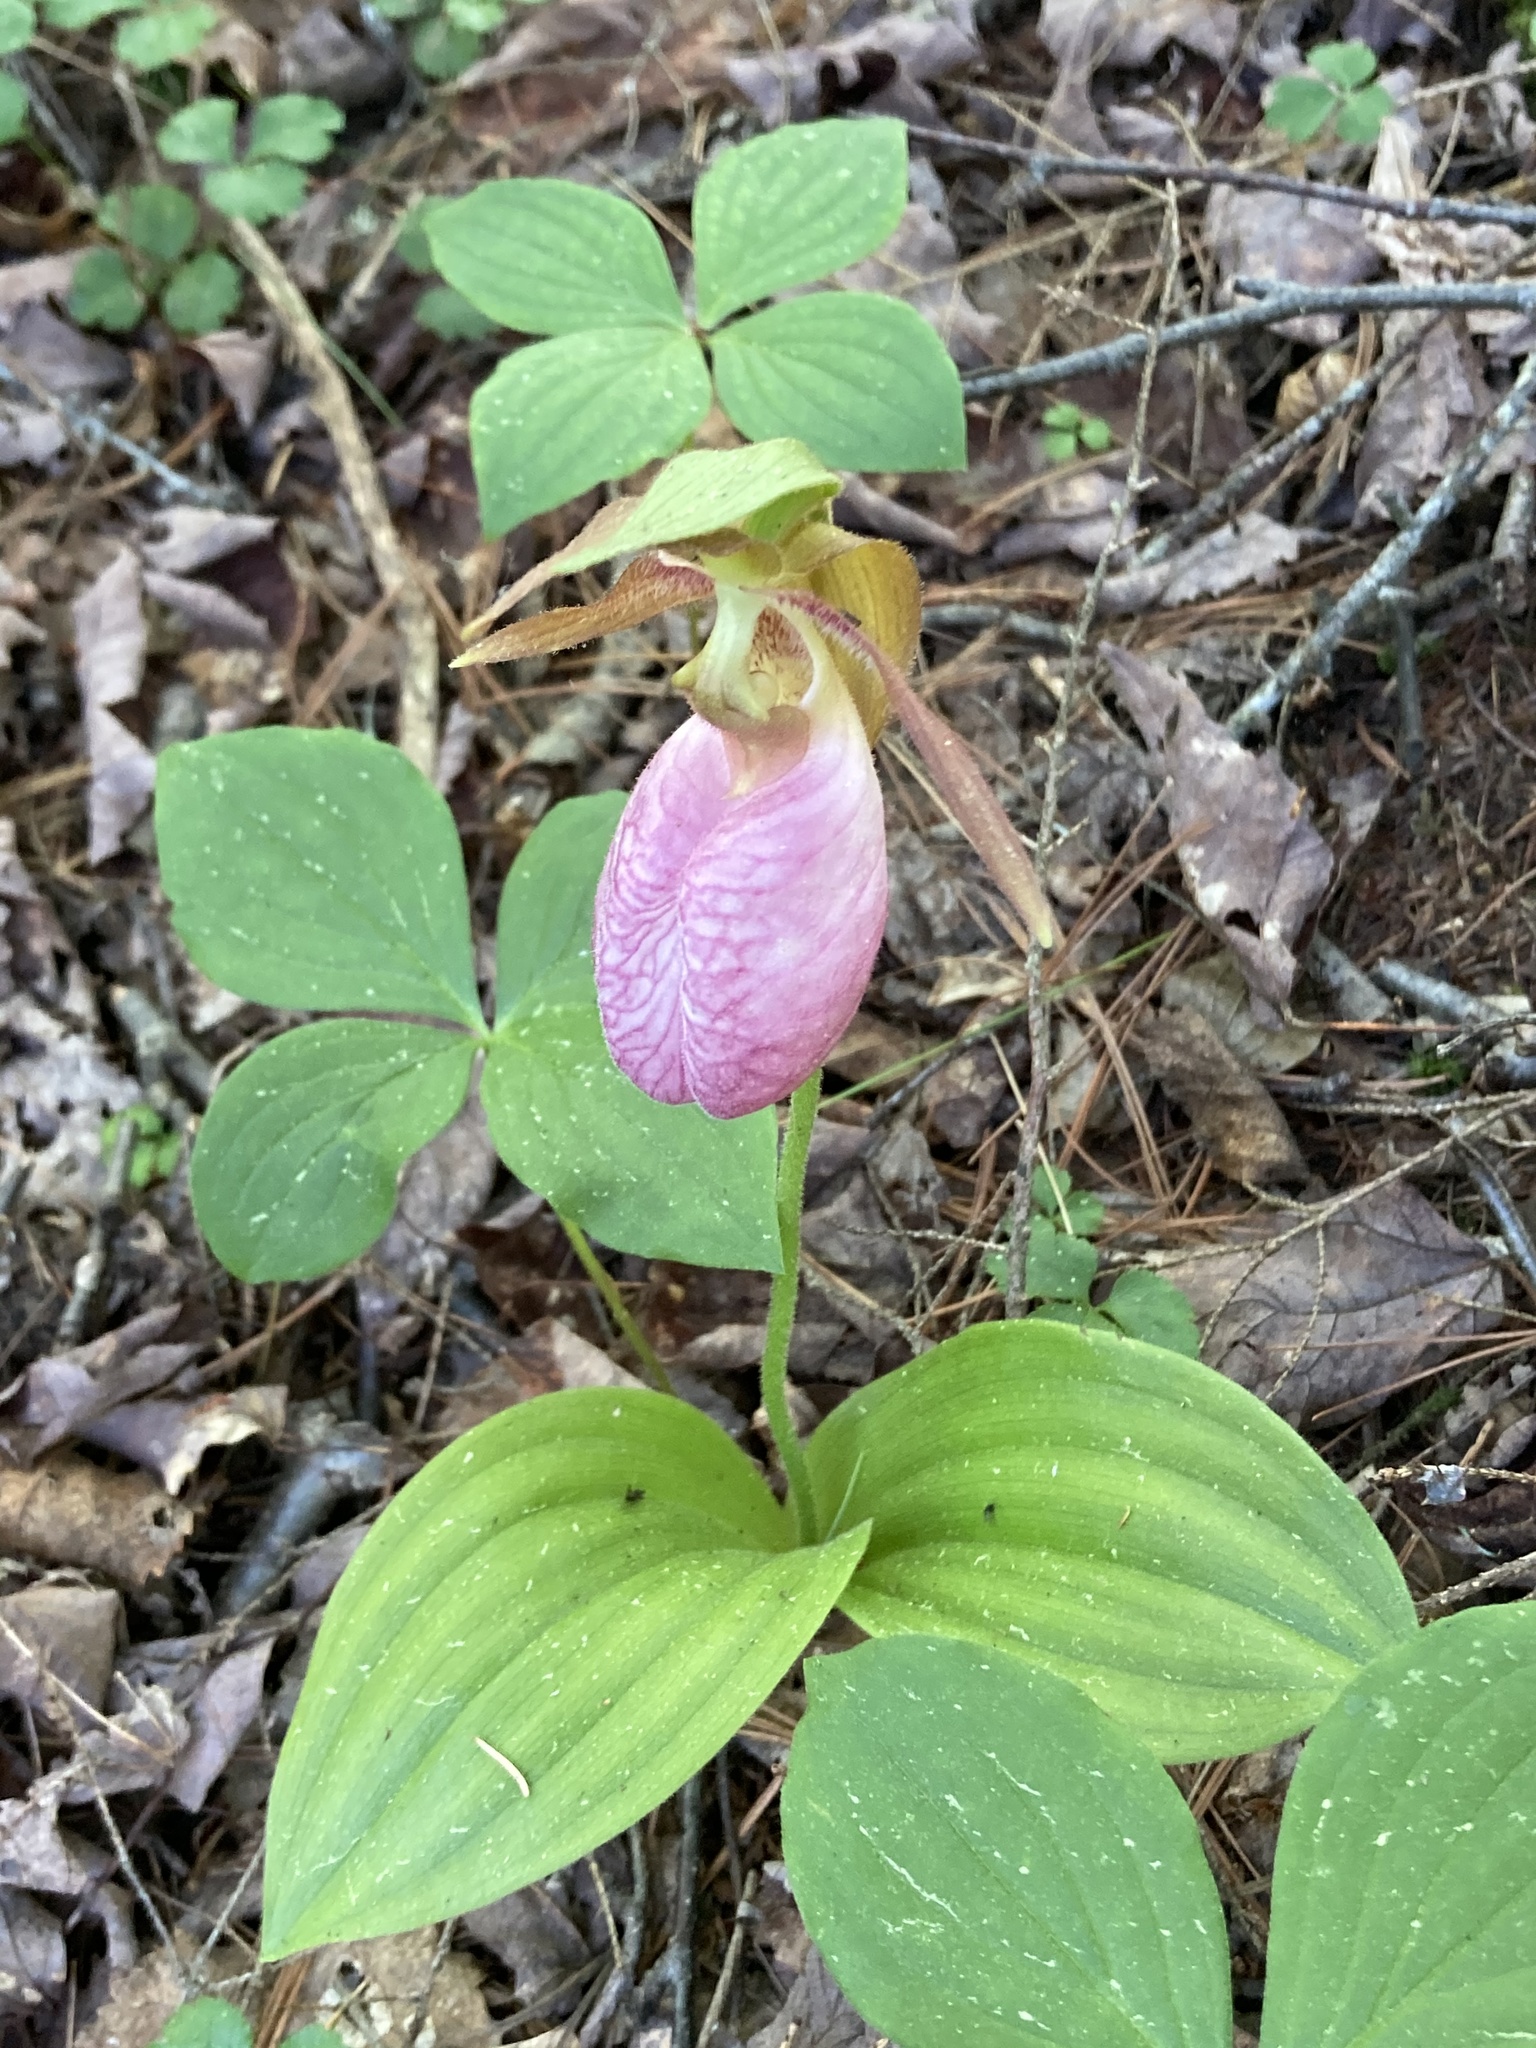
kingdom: Plantae
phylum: Tracheophyta
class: Liliopsida
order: Asparagales
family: Orchidaceae
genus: Cypripedium
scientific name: Cypripedium acaule
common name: Pink lady's-slipper
